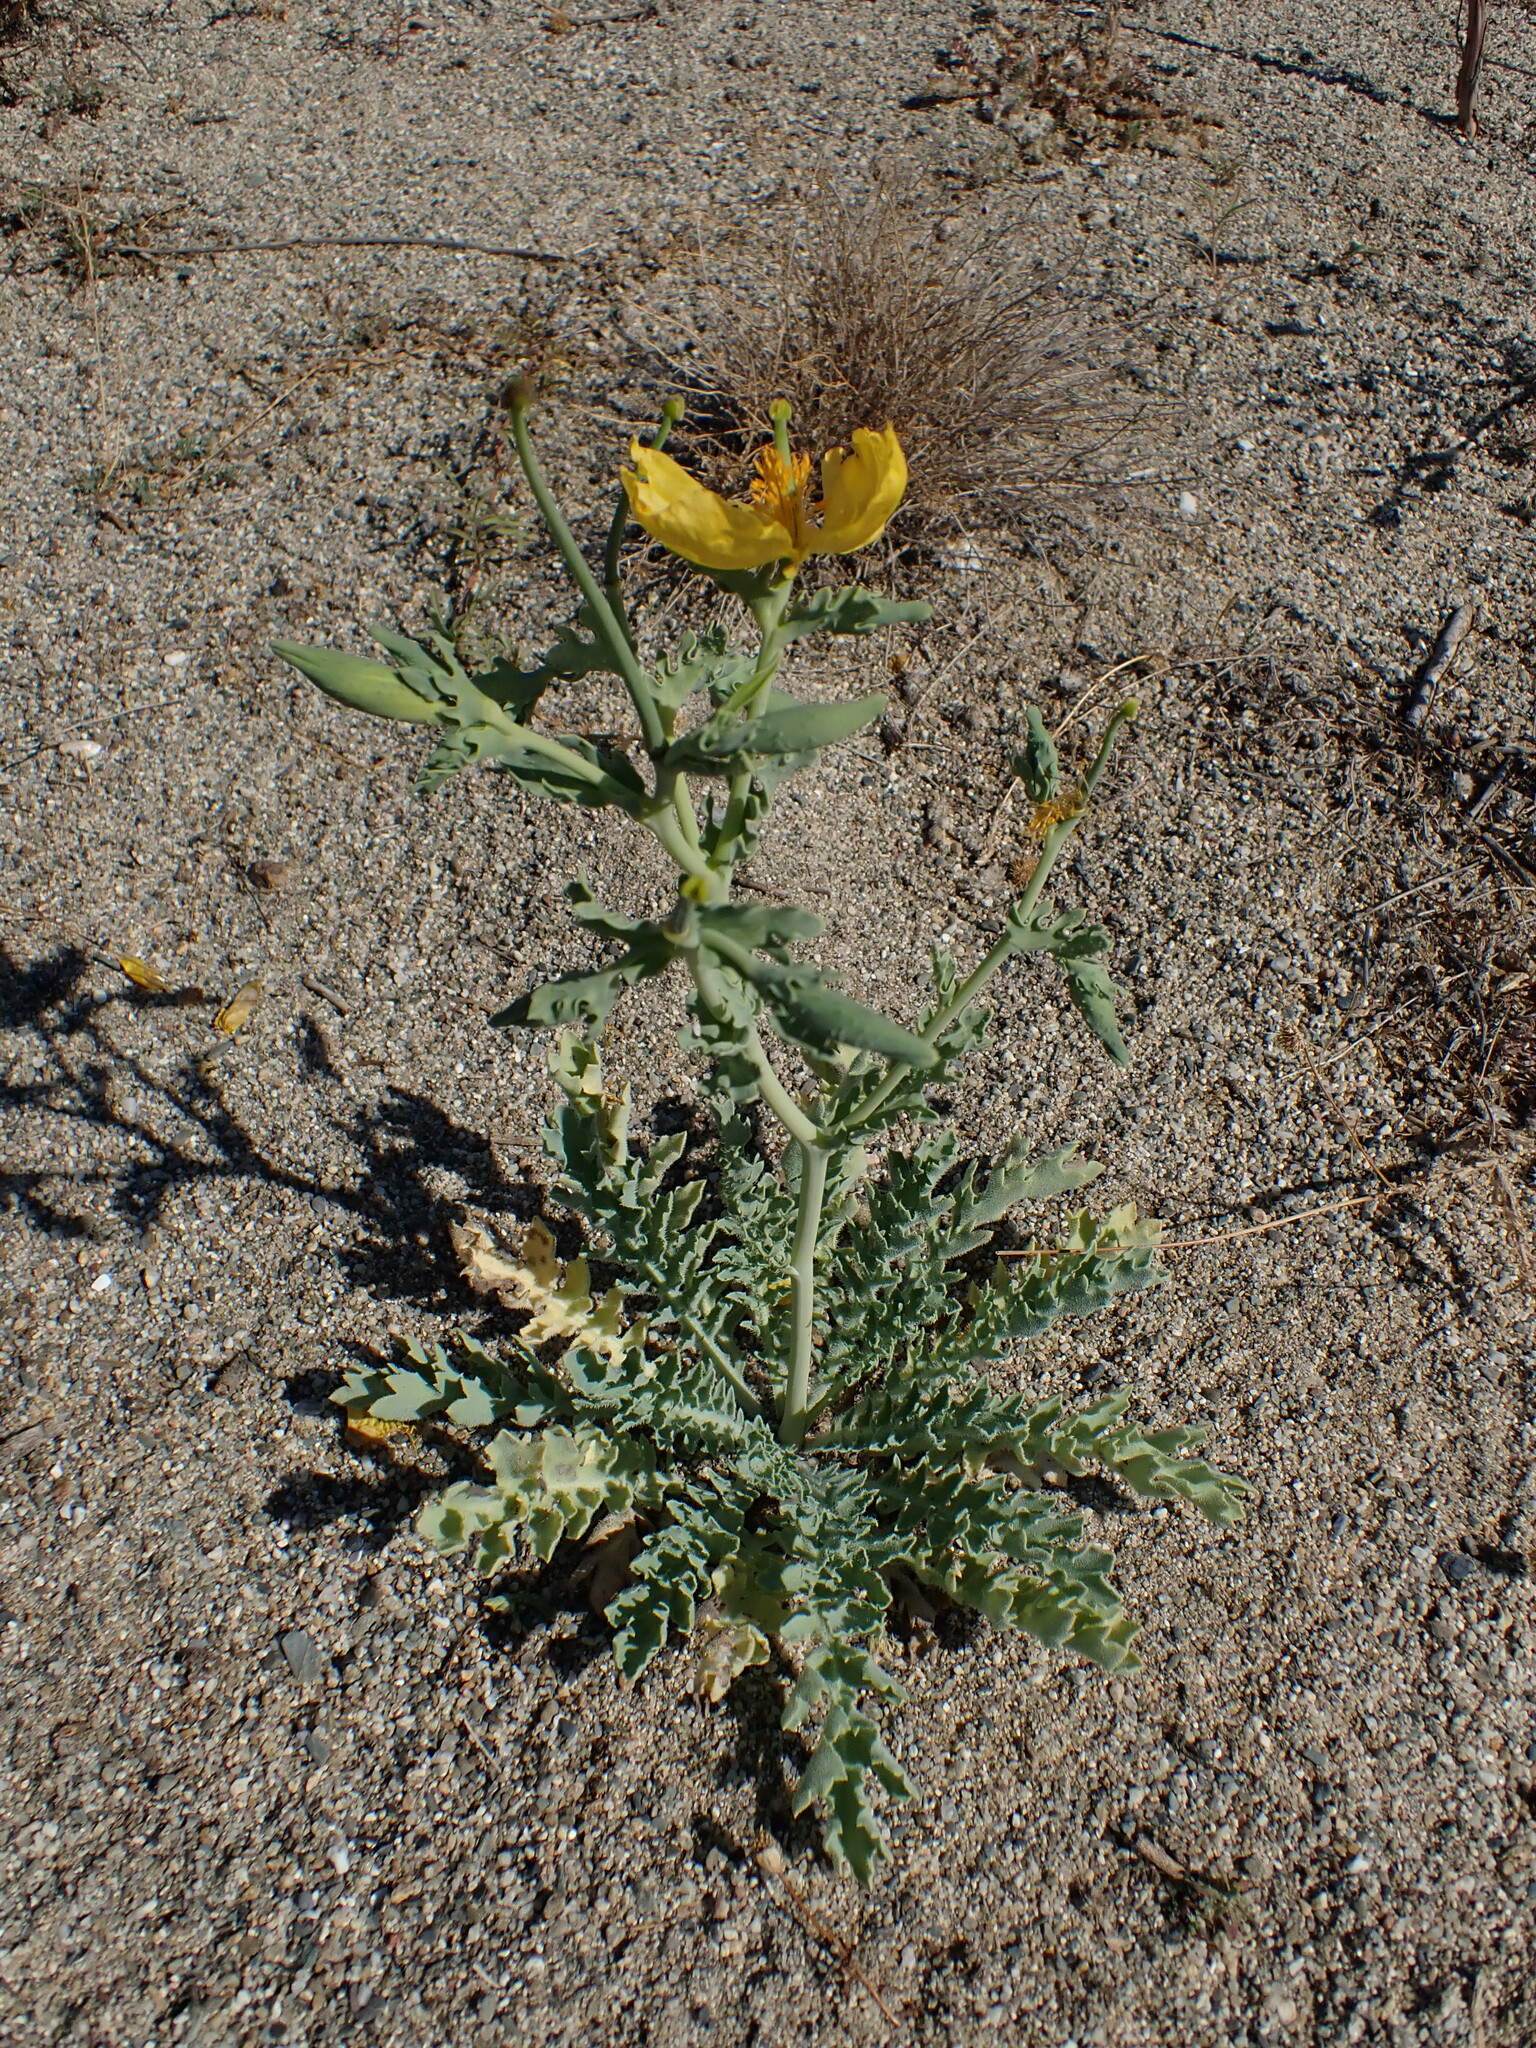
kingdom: Plantae
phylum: Tracheophyta
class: Magnoliopsida
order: Ranunculales
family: Papaveraceae
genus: Glaucium
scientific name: Glaucium flavum
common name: Yellow horned-poppy
